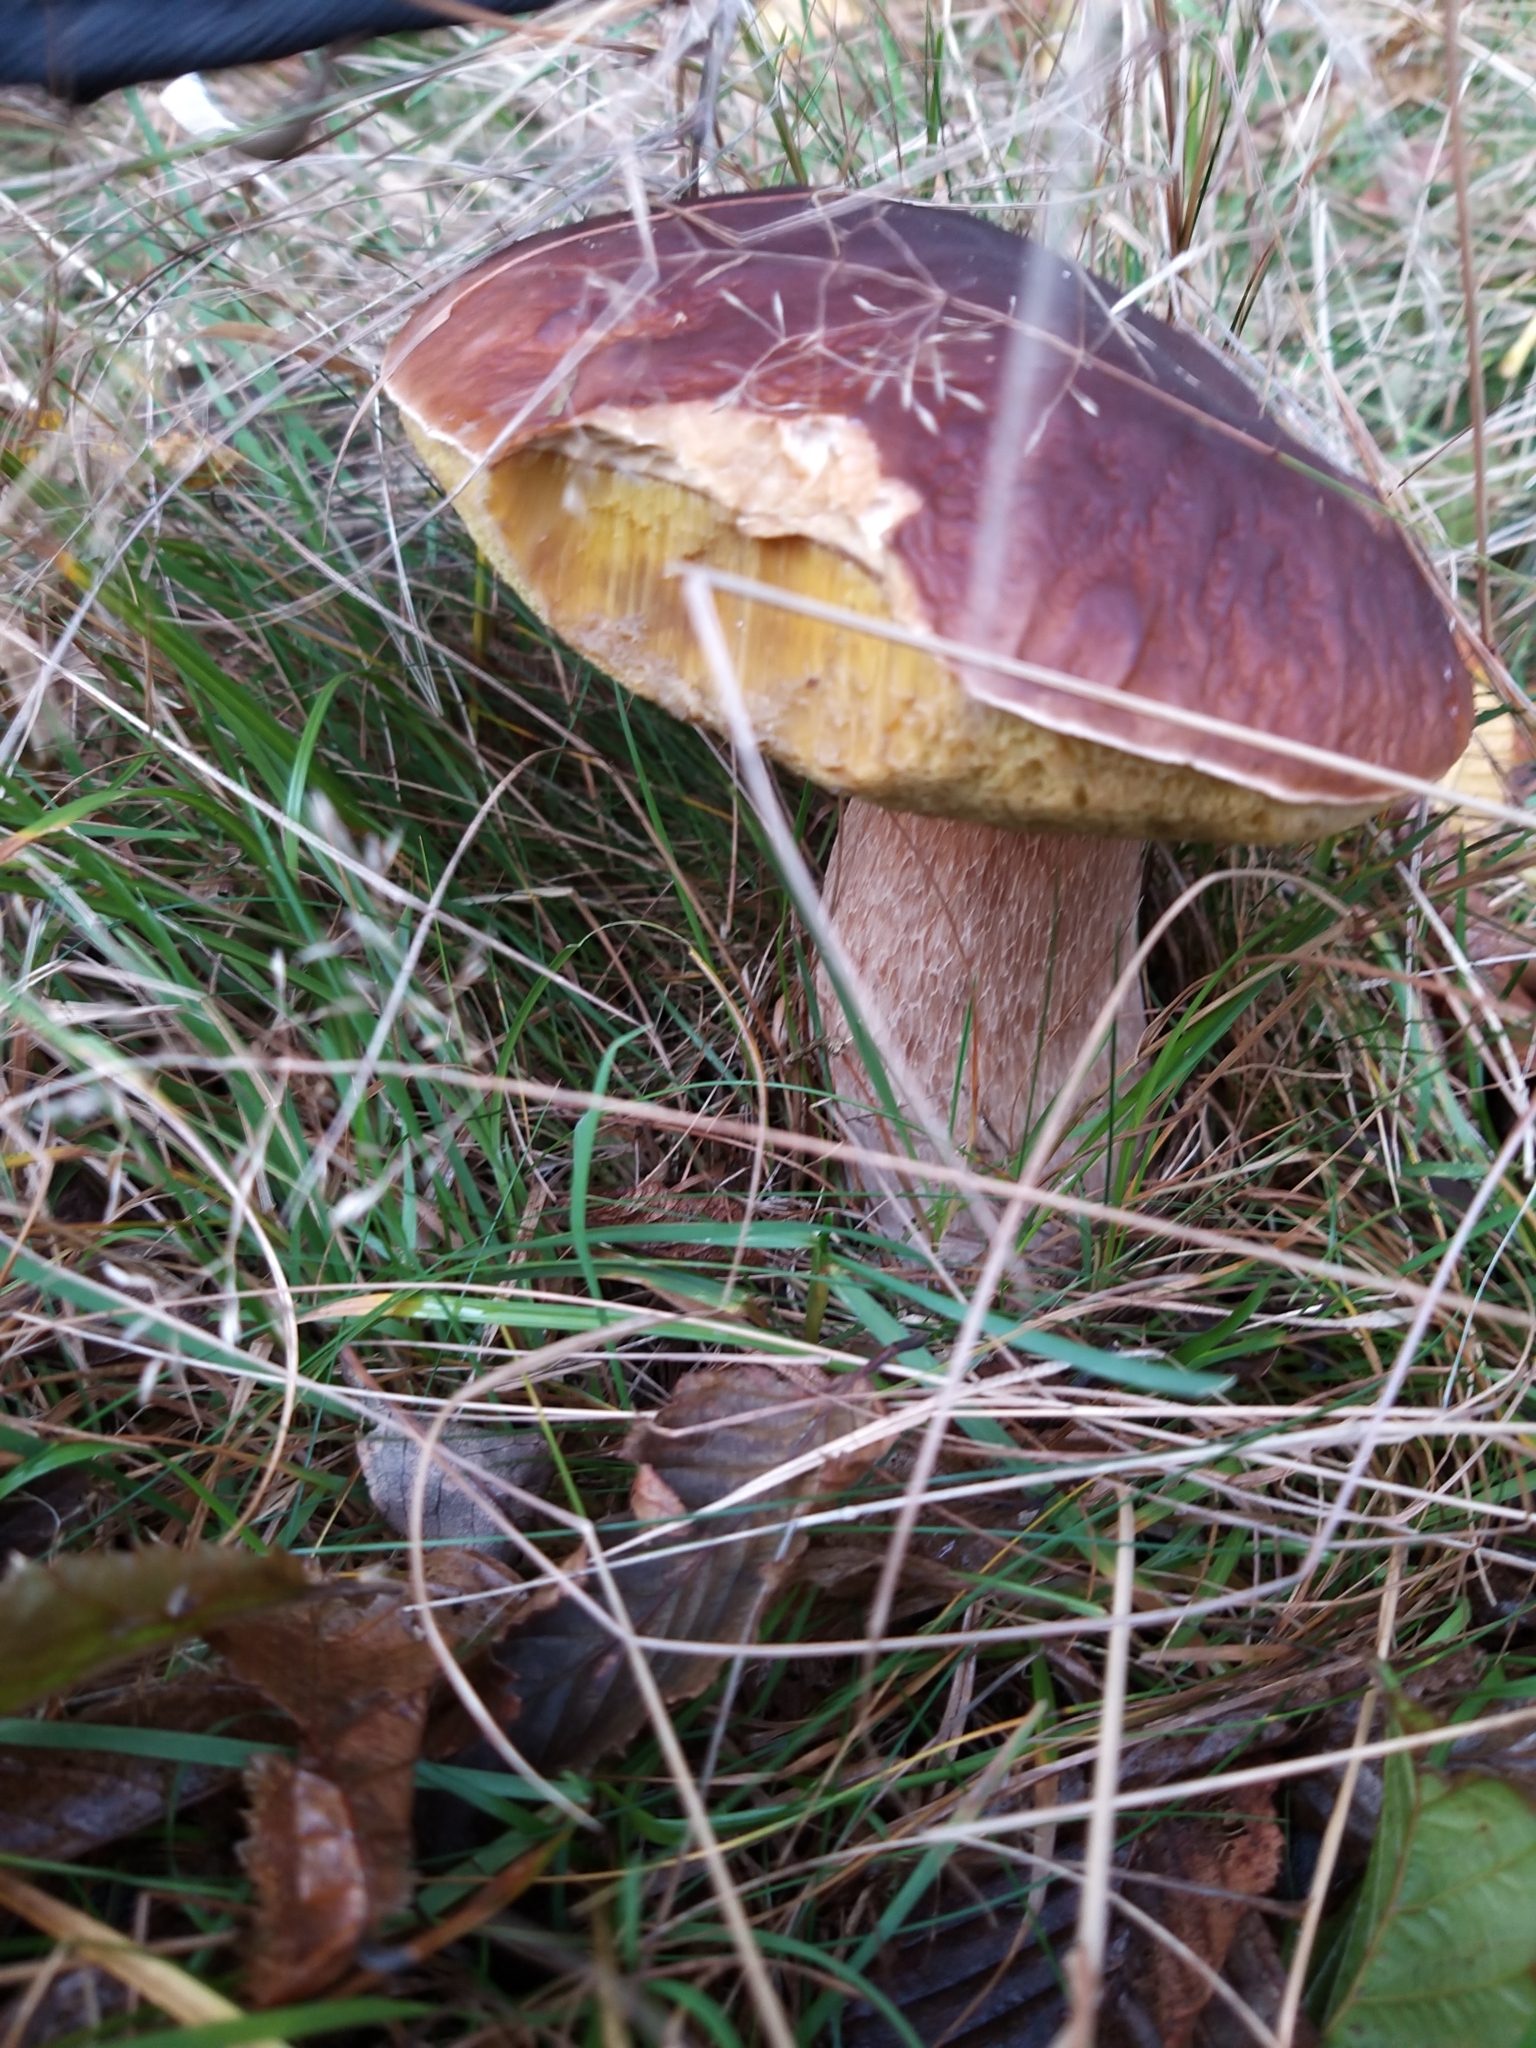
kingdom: Fungi
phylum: Basidiomycota
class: Agaricomycetes
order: Boletales
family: Boletaceae
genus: Boletus
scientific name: Boletus edulis
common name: Cep
